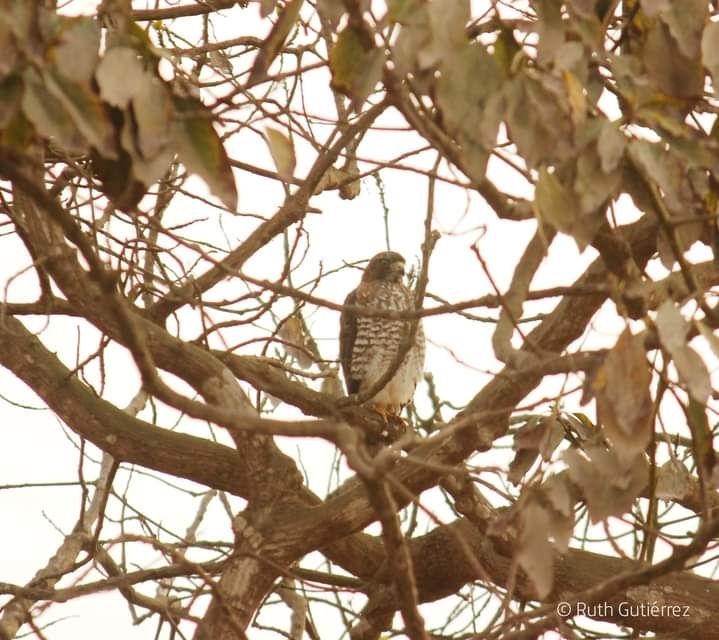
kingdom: Animalia
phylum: Chordata
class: Aves
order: Accipitriformes
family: Accipitridae
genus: Buteo
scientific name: Buteo platypterus
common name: Broad-winged hawk
